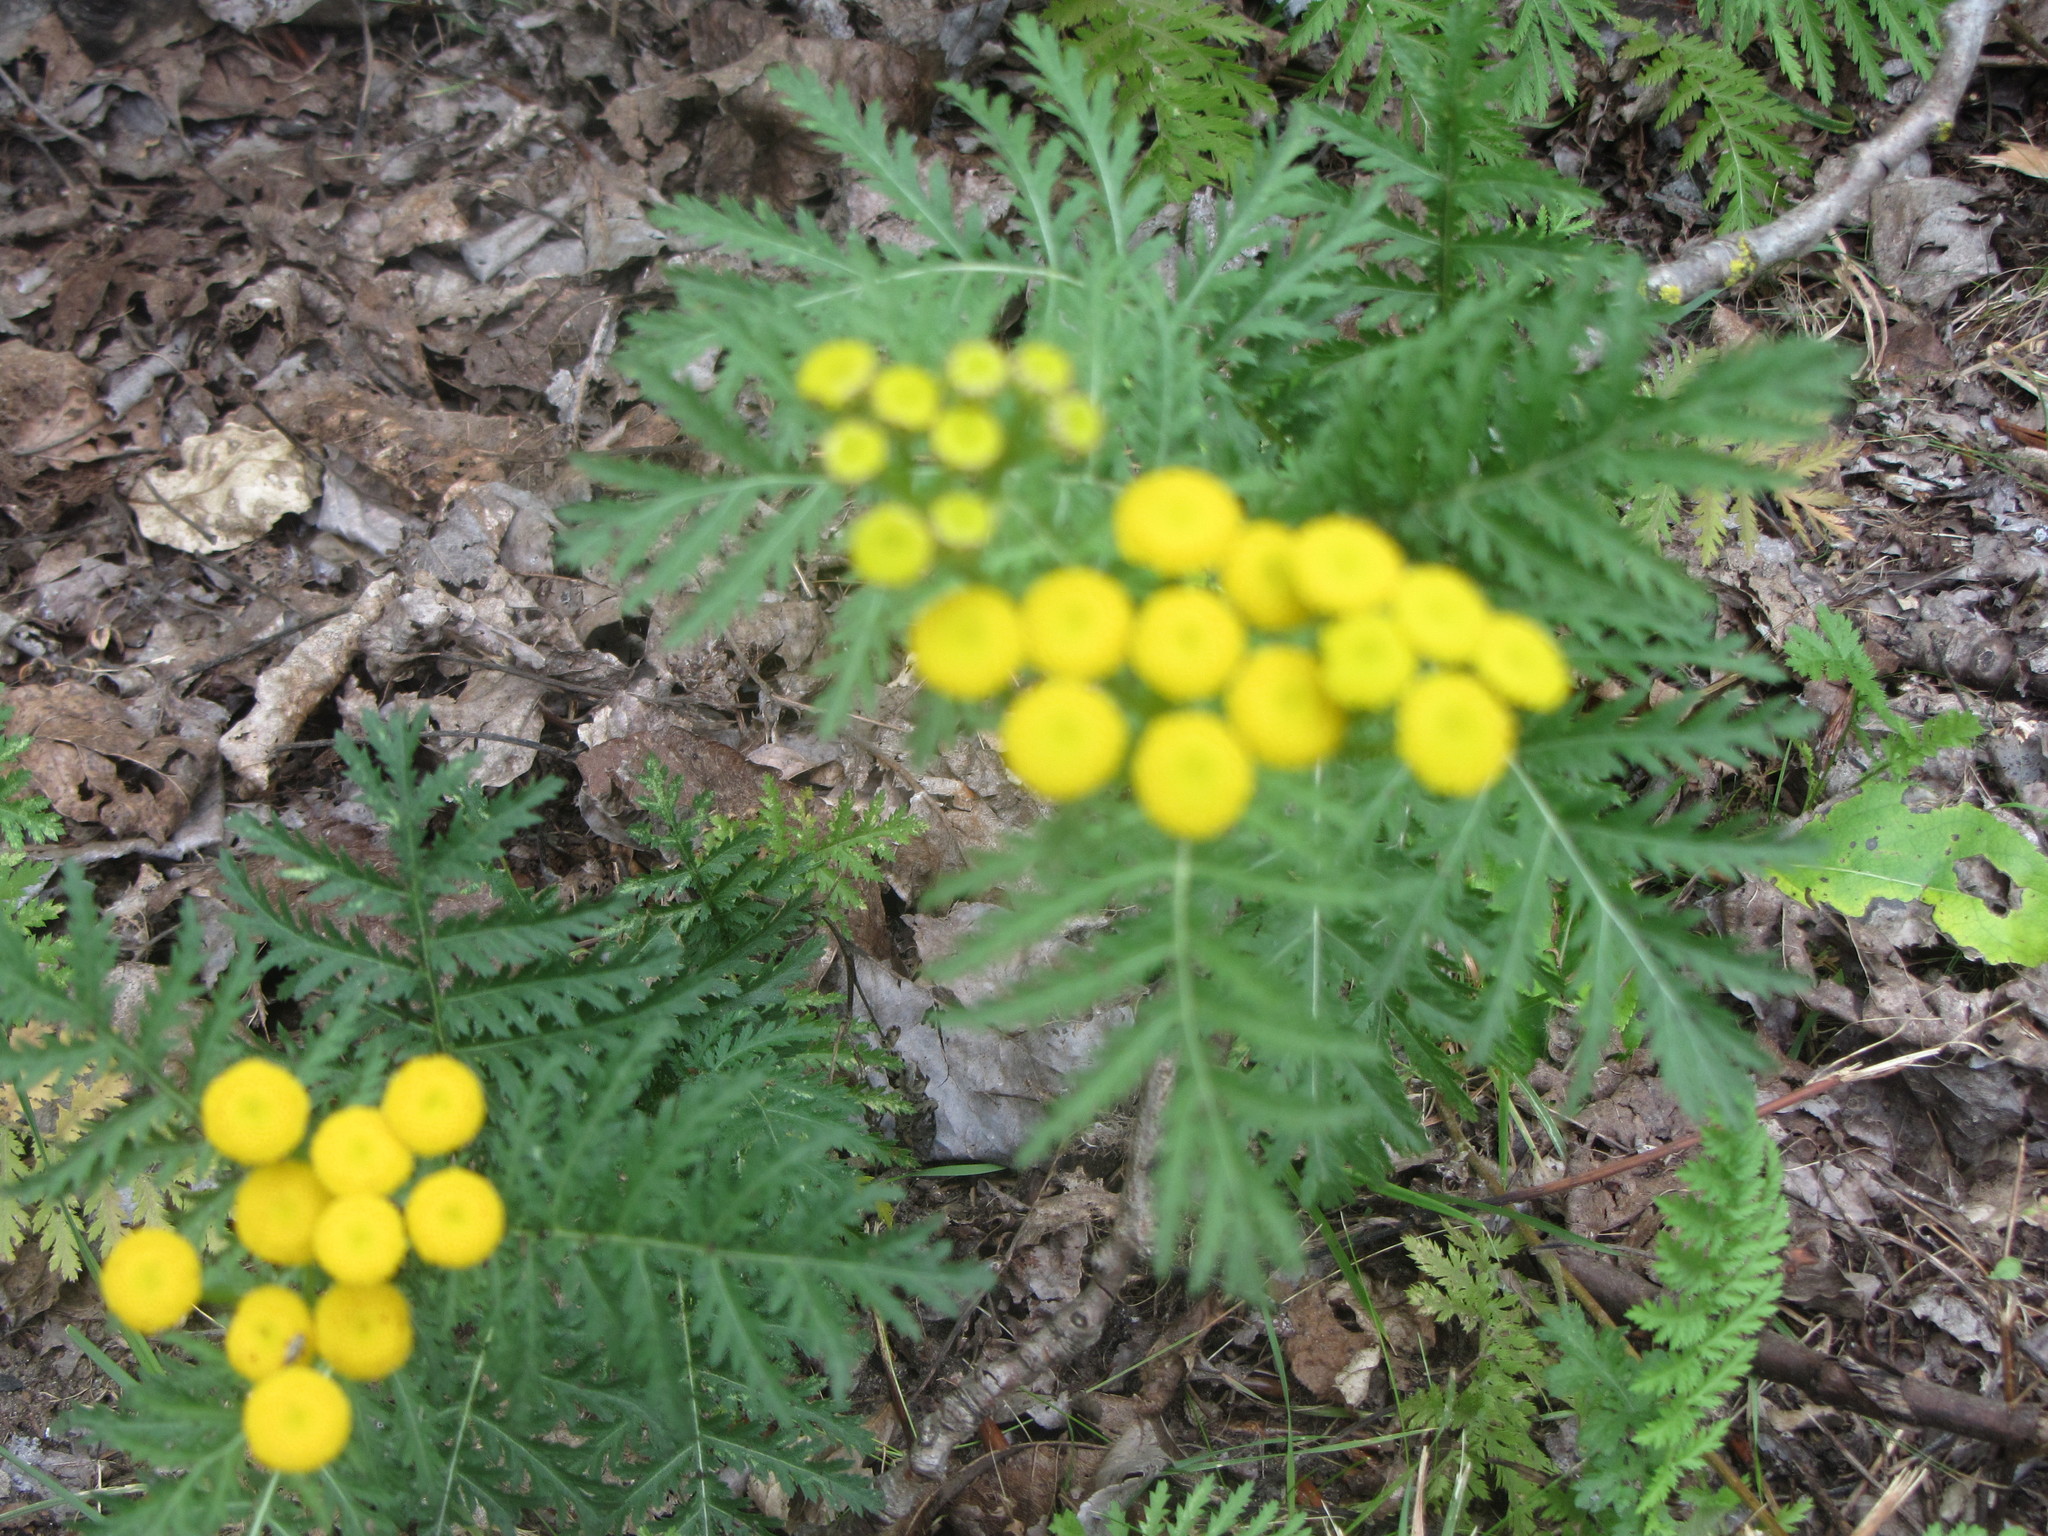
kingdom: Plantae
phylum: Tracheophyta
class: Magnoliopsida
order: Asterales
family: Asteraceae
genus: Tanacetum
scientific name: Tanacetum vulgare
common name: Common tansy
